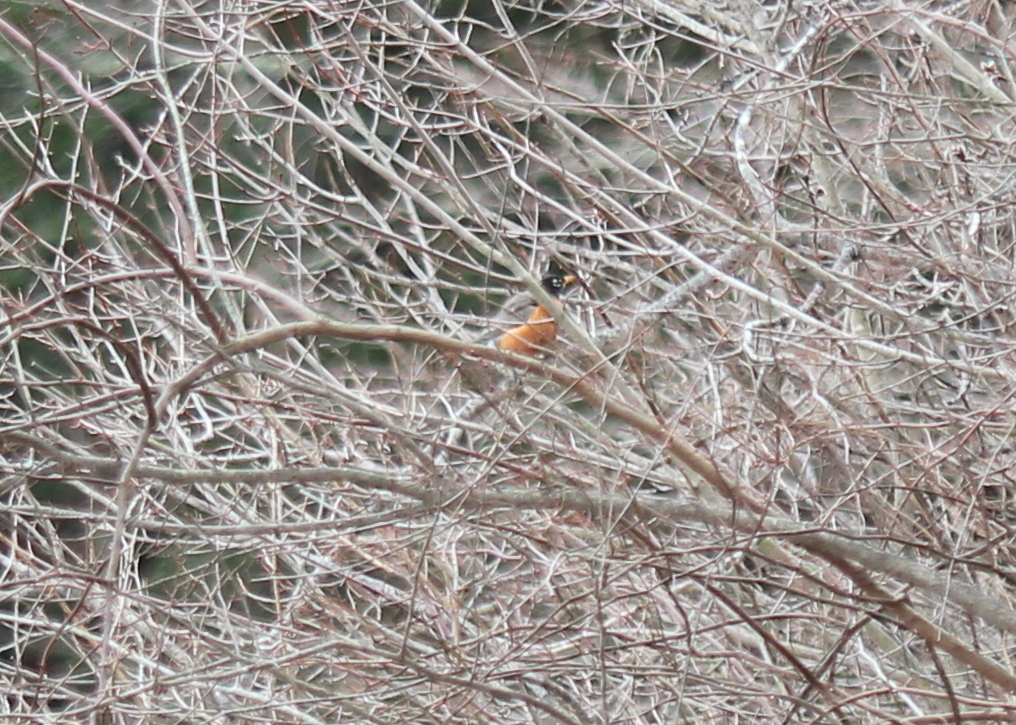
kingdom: Animalia
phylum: Chordata
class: Aves
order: Passeriformes
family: Turdidae
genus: Turdus
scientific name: Turdus migratorius
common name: American robin
